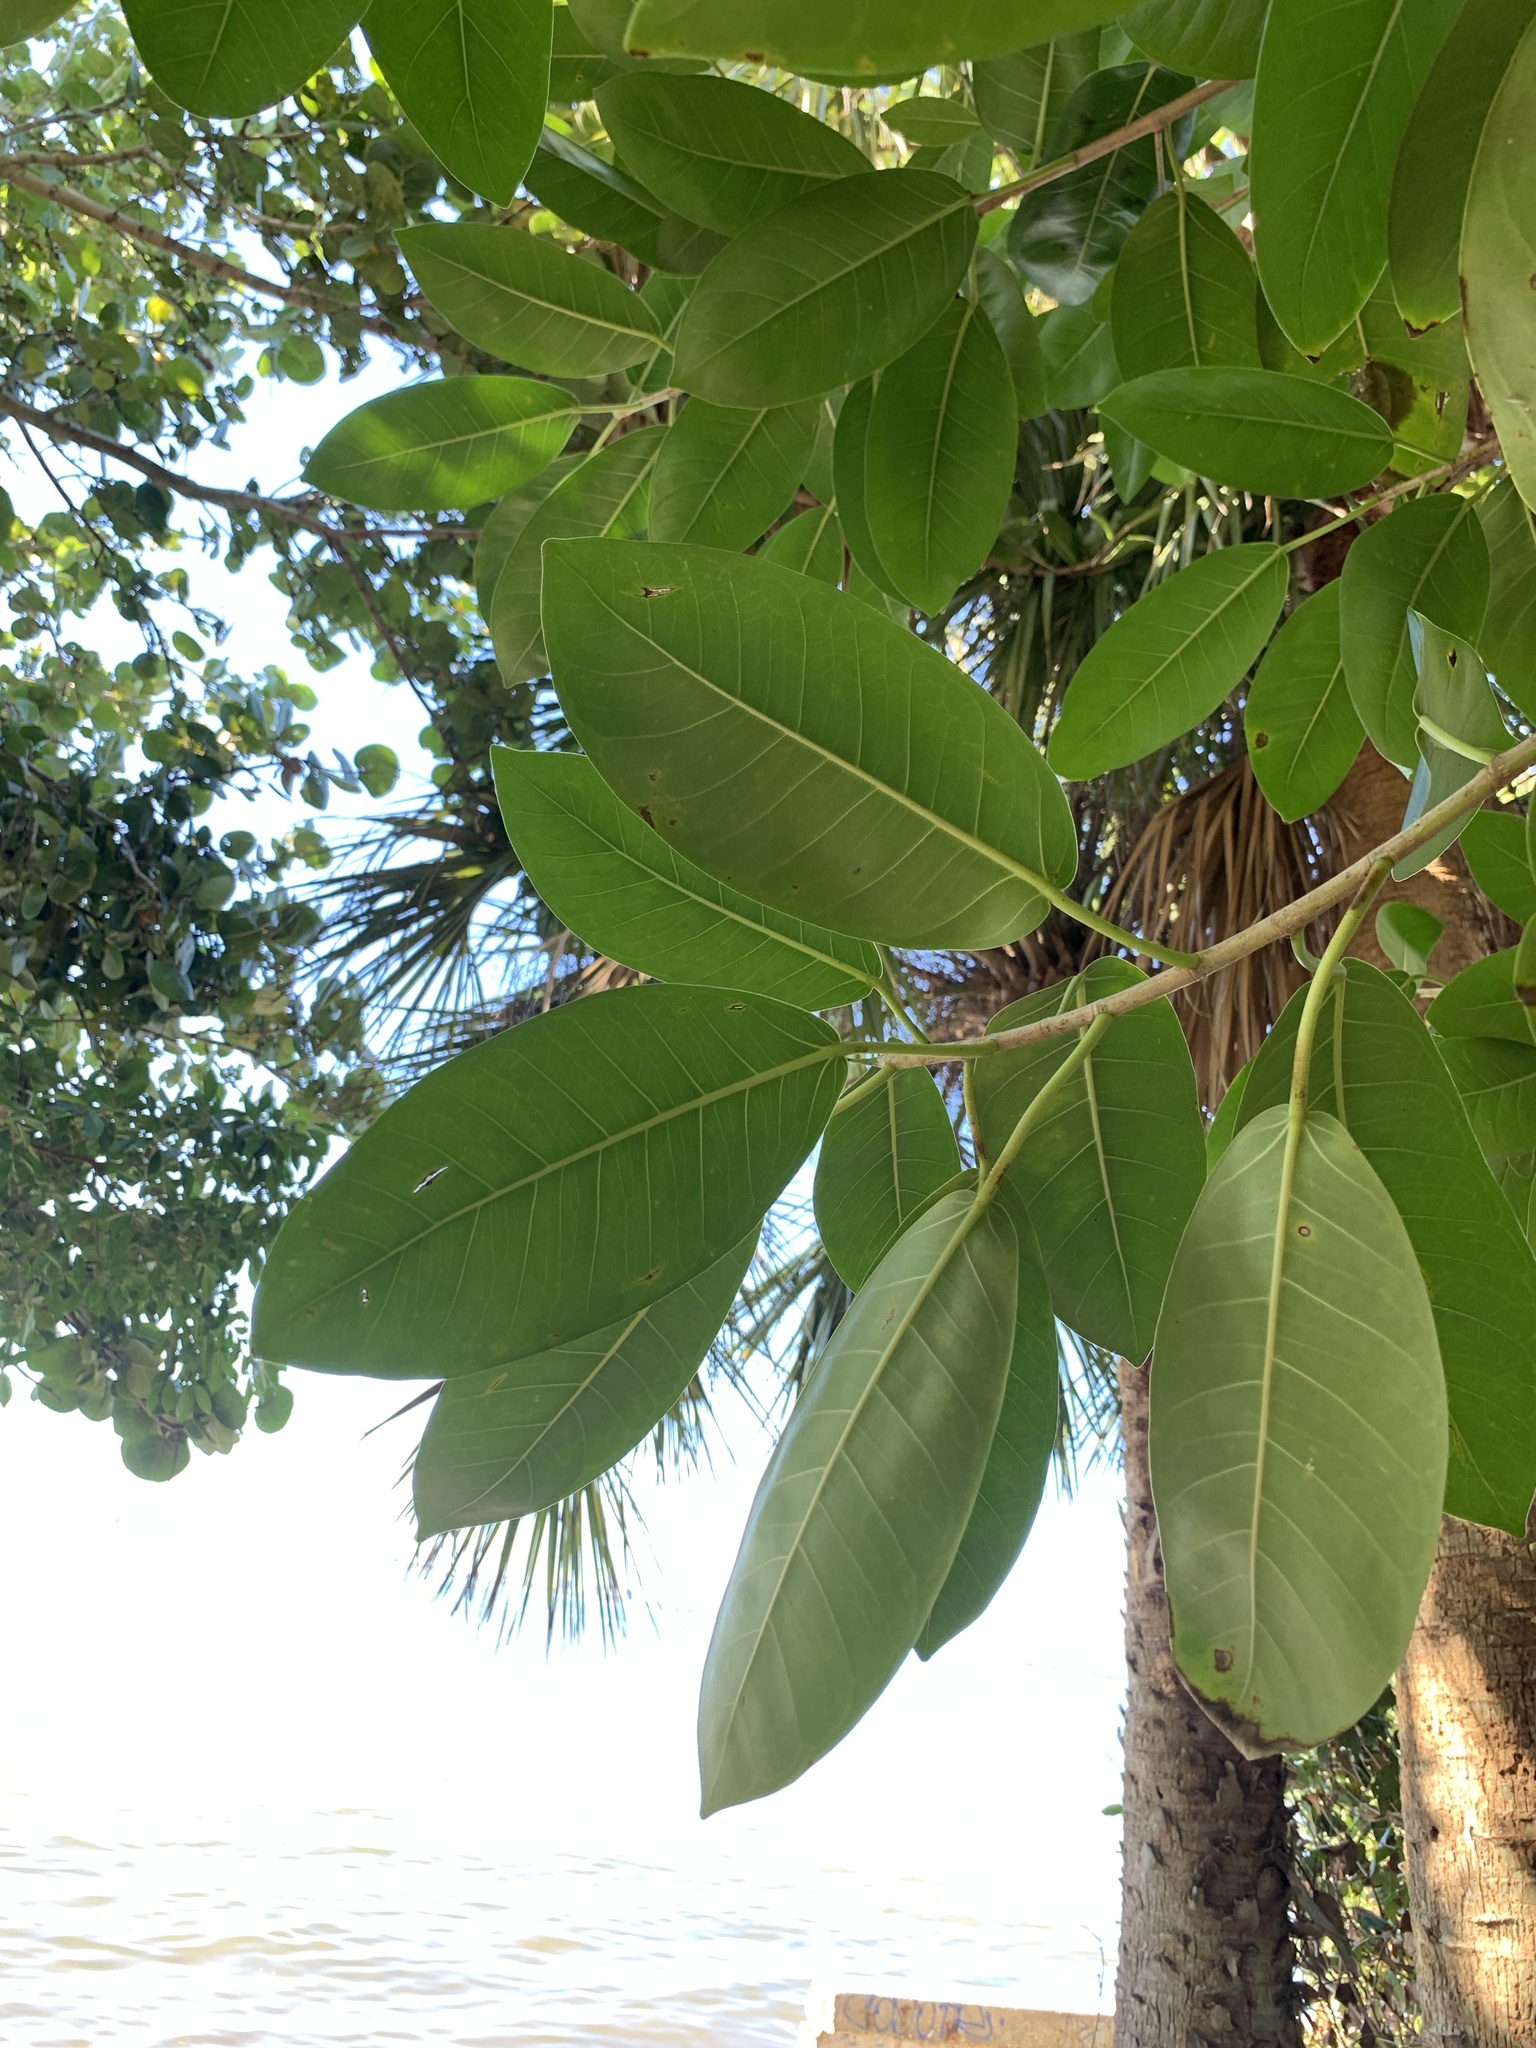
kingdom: Plantae
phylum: Tracheophyta
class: Magnoliopsida
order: Rosales
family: Moraceae
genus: Ficus
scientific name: Ficus aurea
